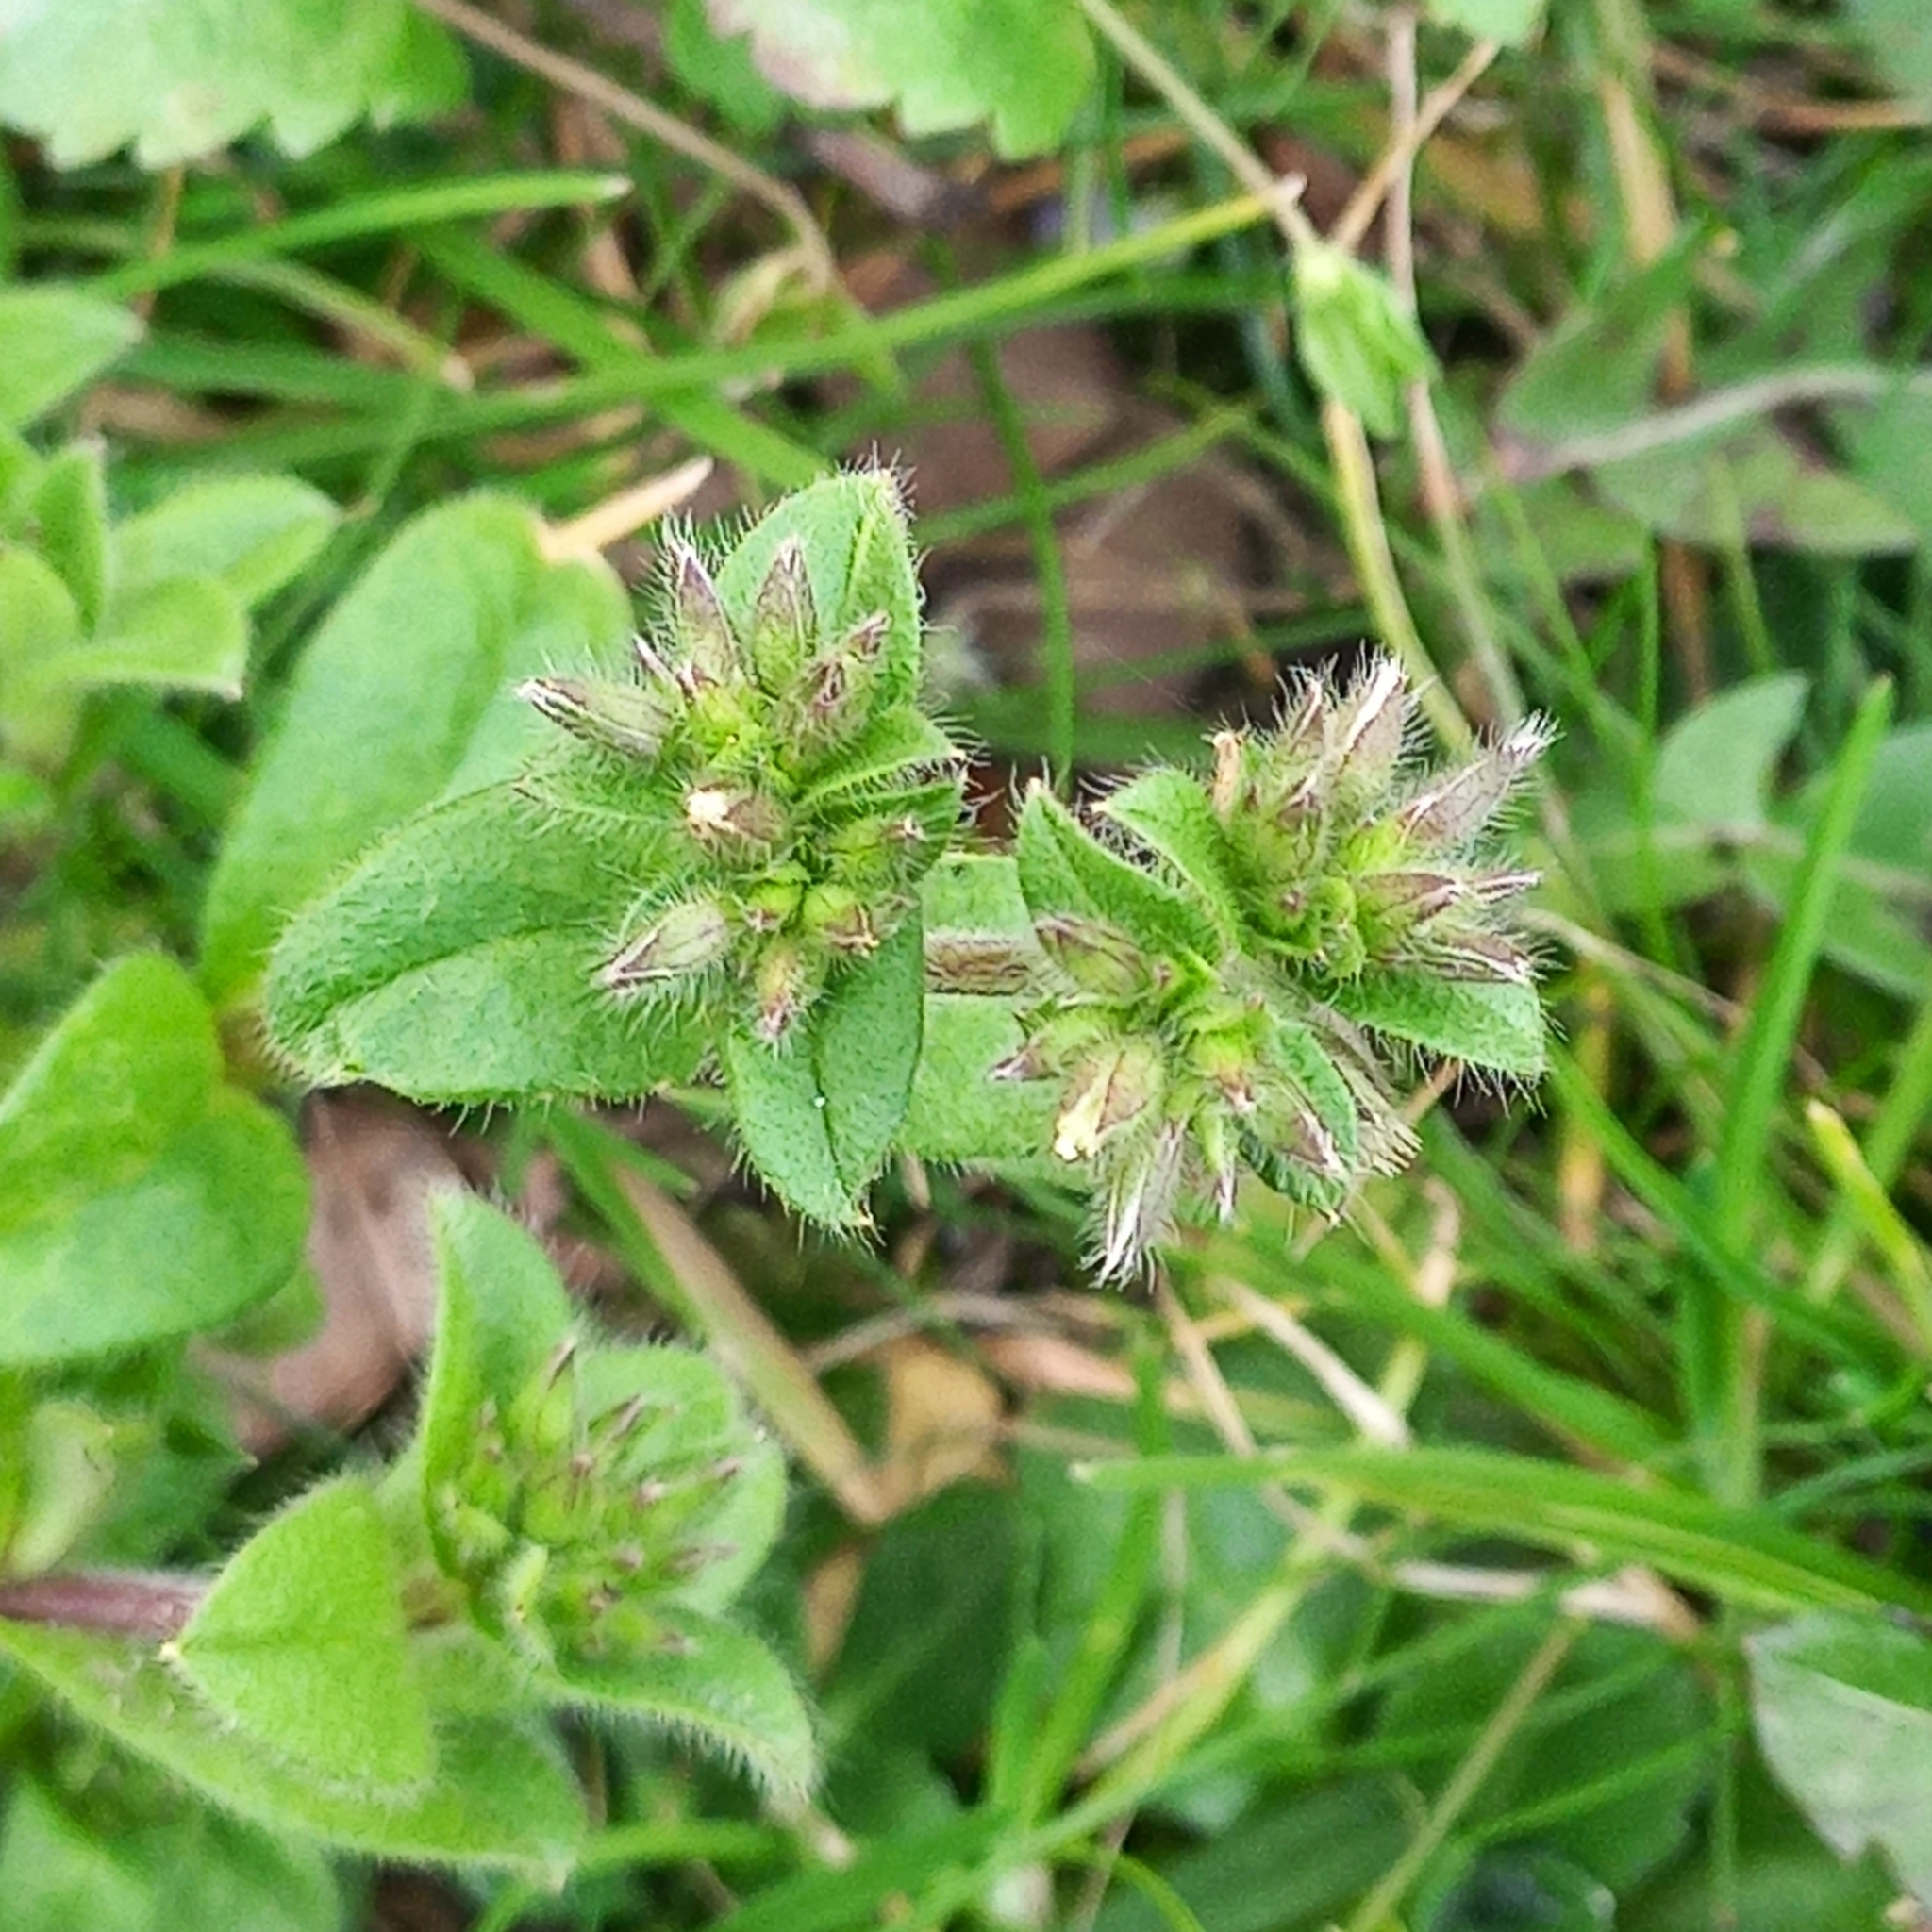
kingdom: Plantae
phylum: Tracheophyta
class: Magnoliopsida
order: Caryophyllales
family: Caryophyllaceae
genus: Cerastium
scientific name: Cerastium glomeratum
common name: Sticky chickweed
